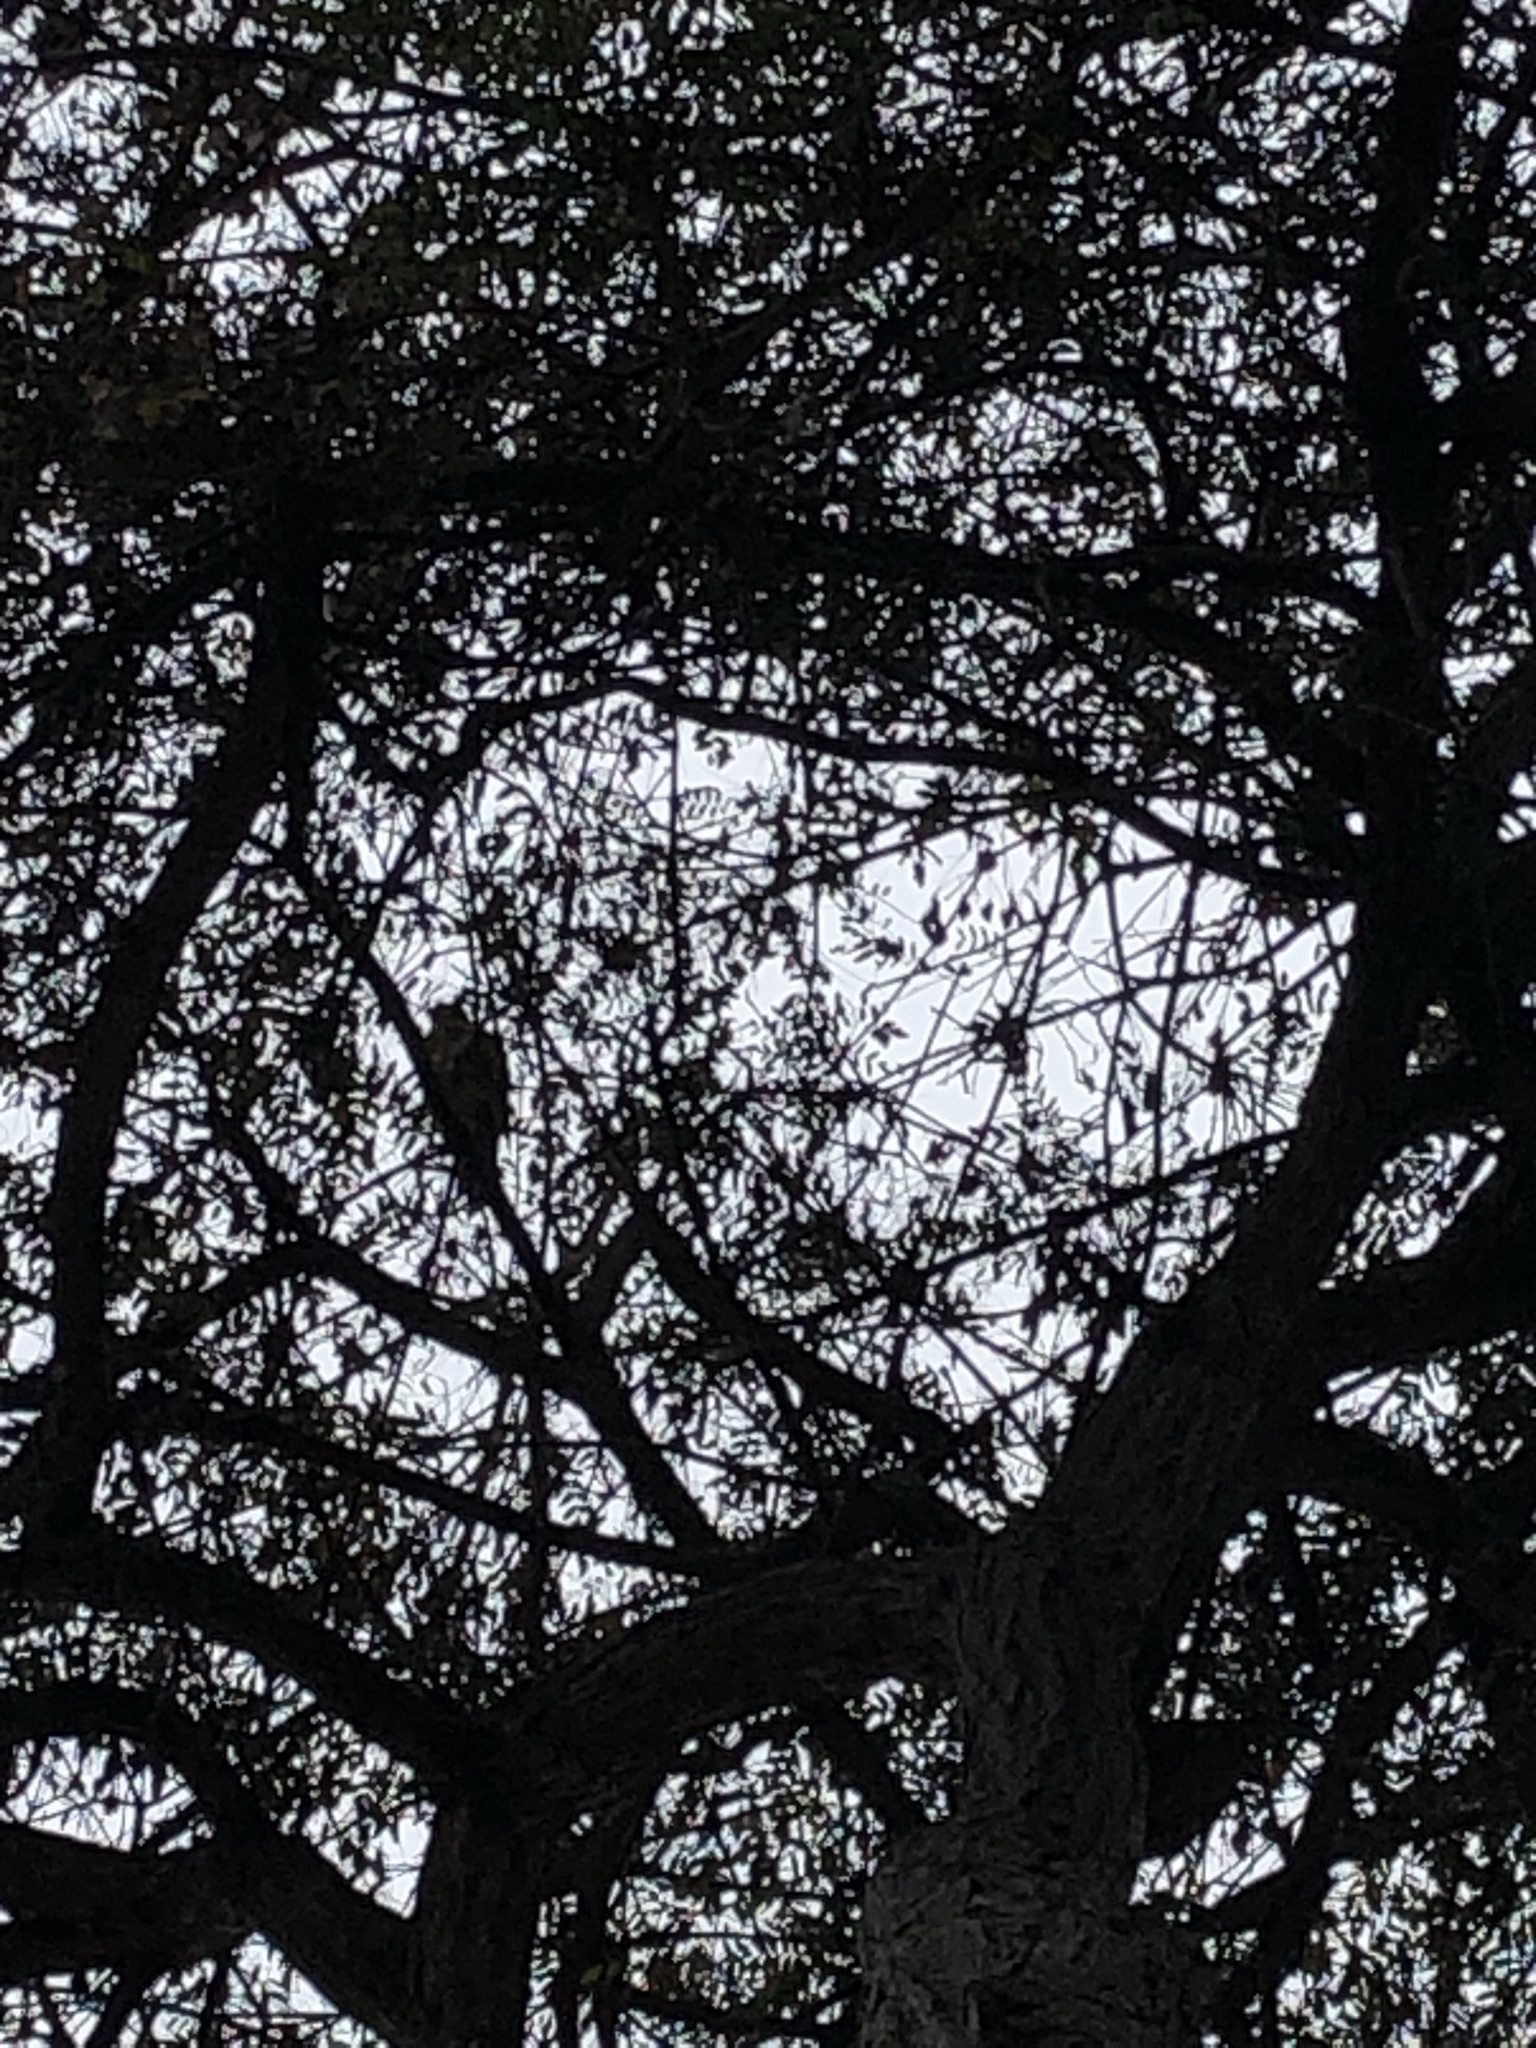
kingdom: Animalia
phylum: Chordata
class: Aves
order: Accipitriformes
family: Accipitridae
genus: Parabuteo
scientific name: Parabuteo unicinctus
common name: Harris's hawk
